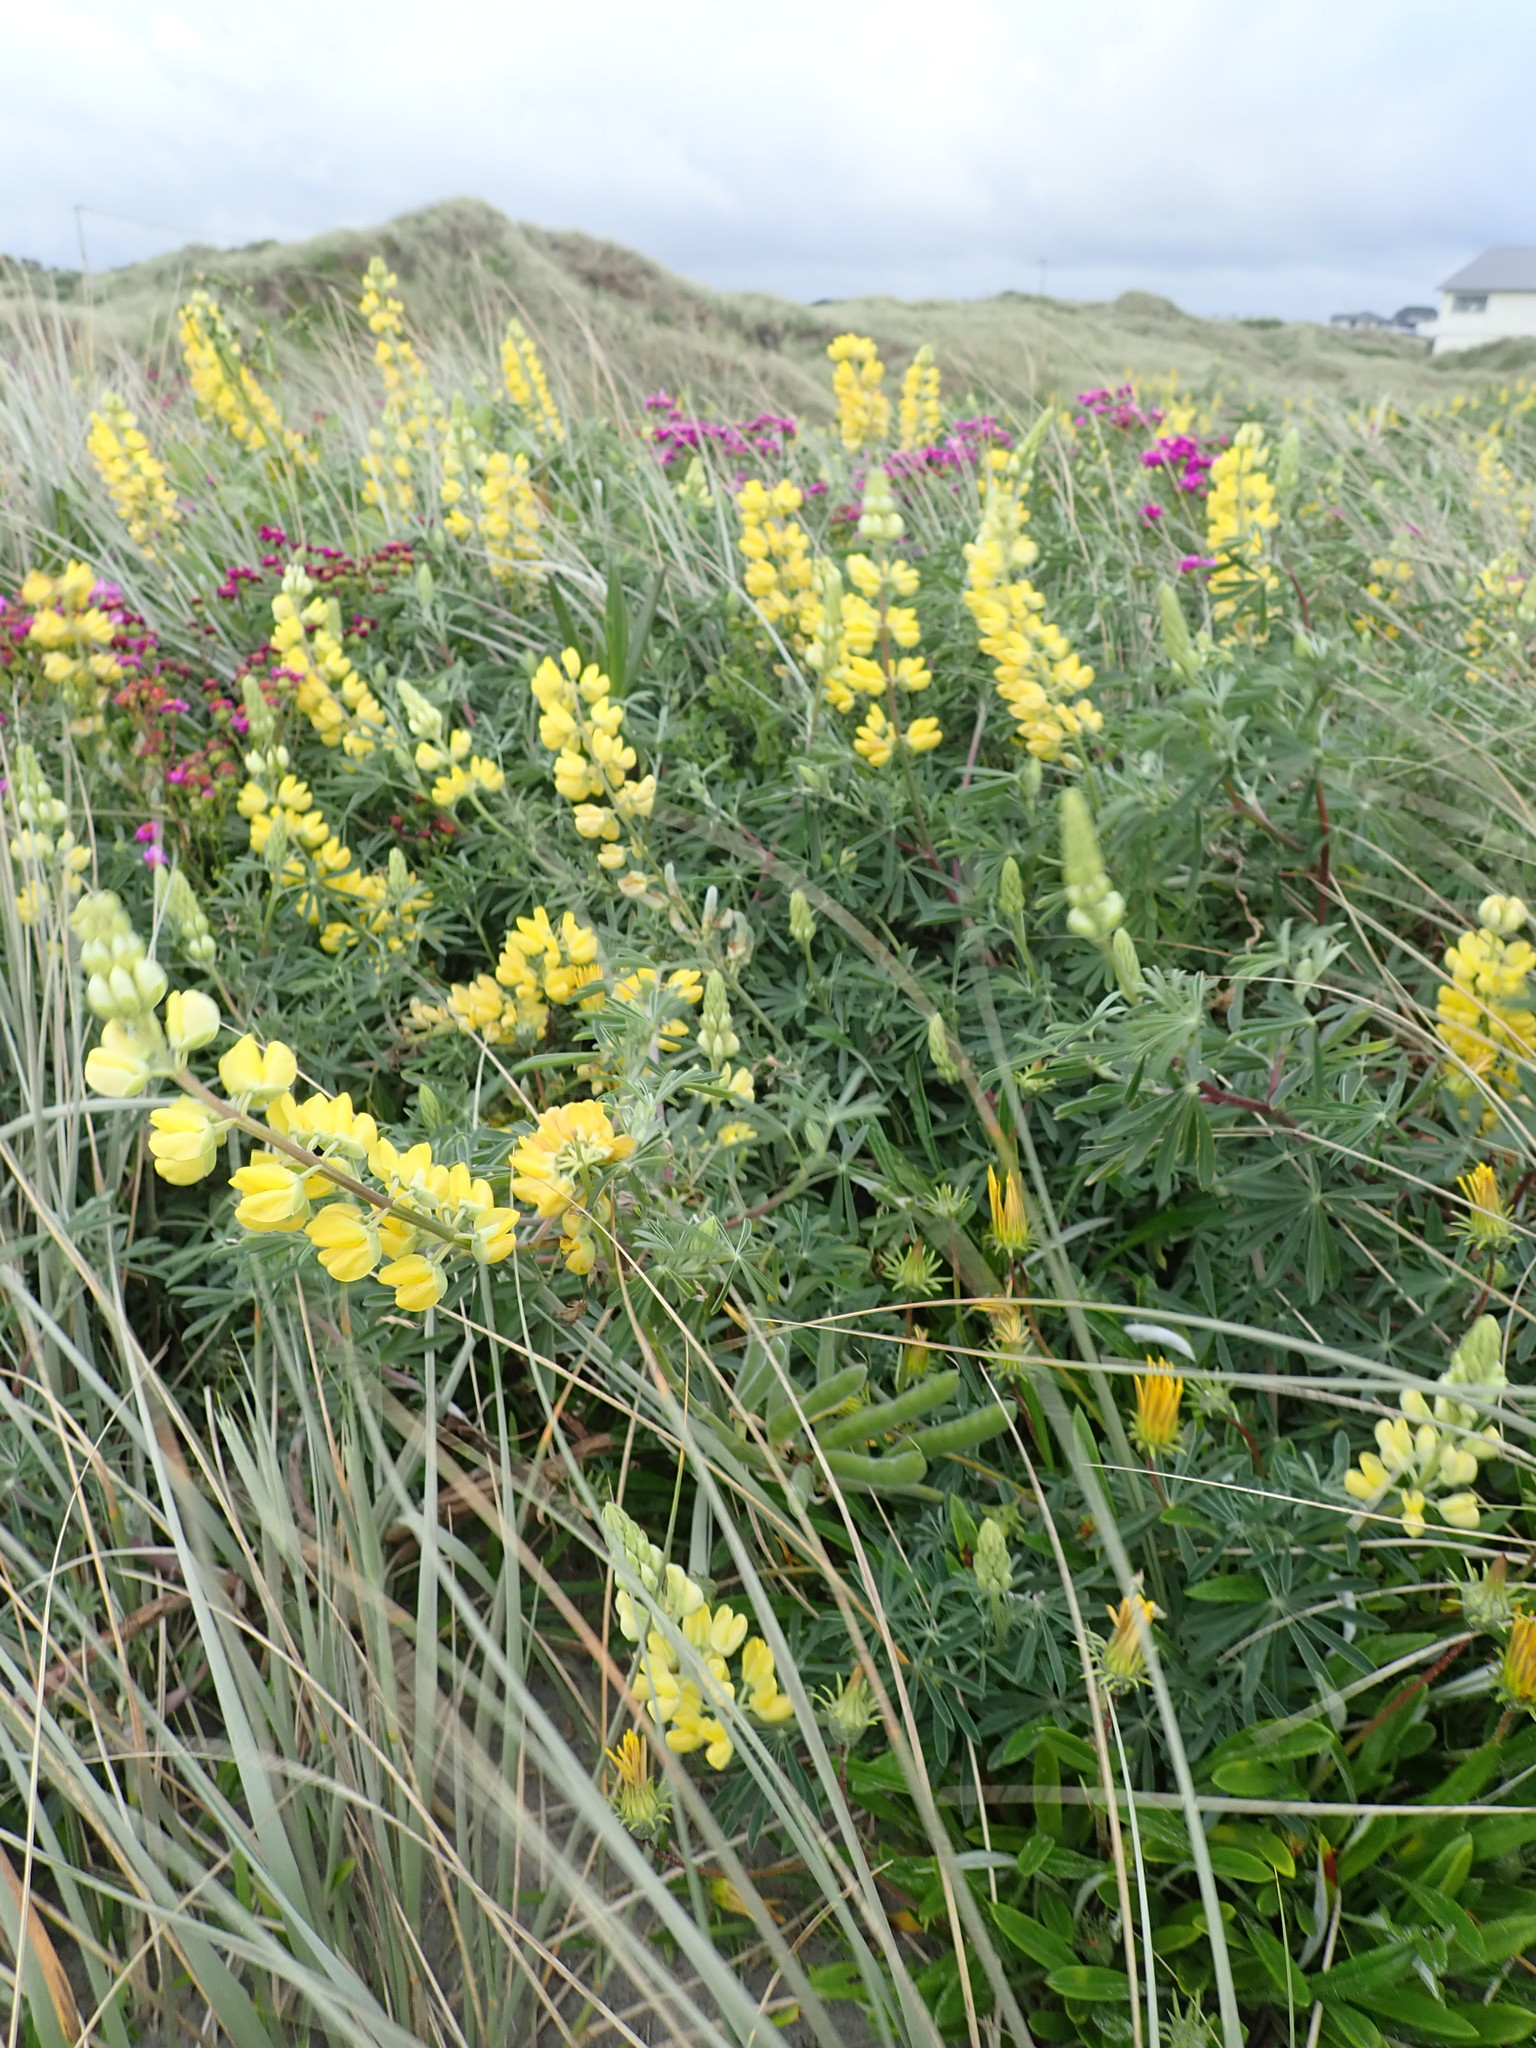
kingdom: Plantae
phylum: Tracheophyta
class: Magnoliopsida
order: Fabales
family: Fabaceae
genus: Lupinus
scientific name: Lupinus arboreus
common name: Yellow bush lupine
